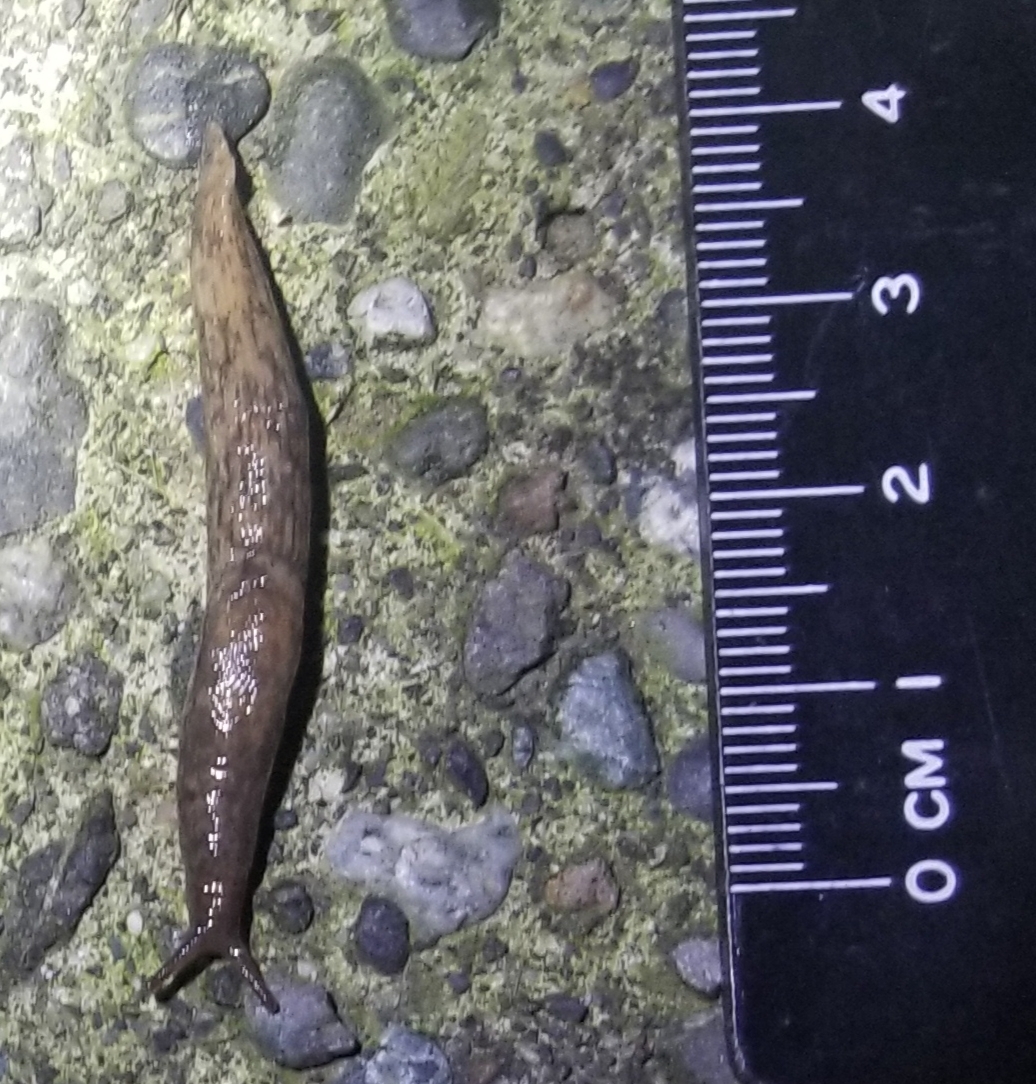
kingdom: Animalia
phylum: Mollusca
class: Gastropoda
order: Stylommatophora
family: Agriolimacidae
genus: Deroceras
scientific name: Deroceras reticulatum
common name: Gray field slug
